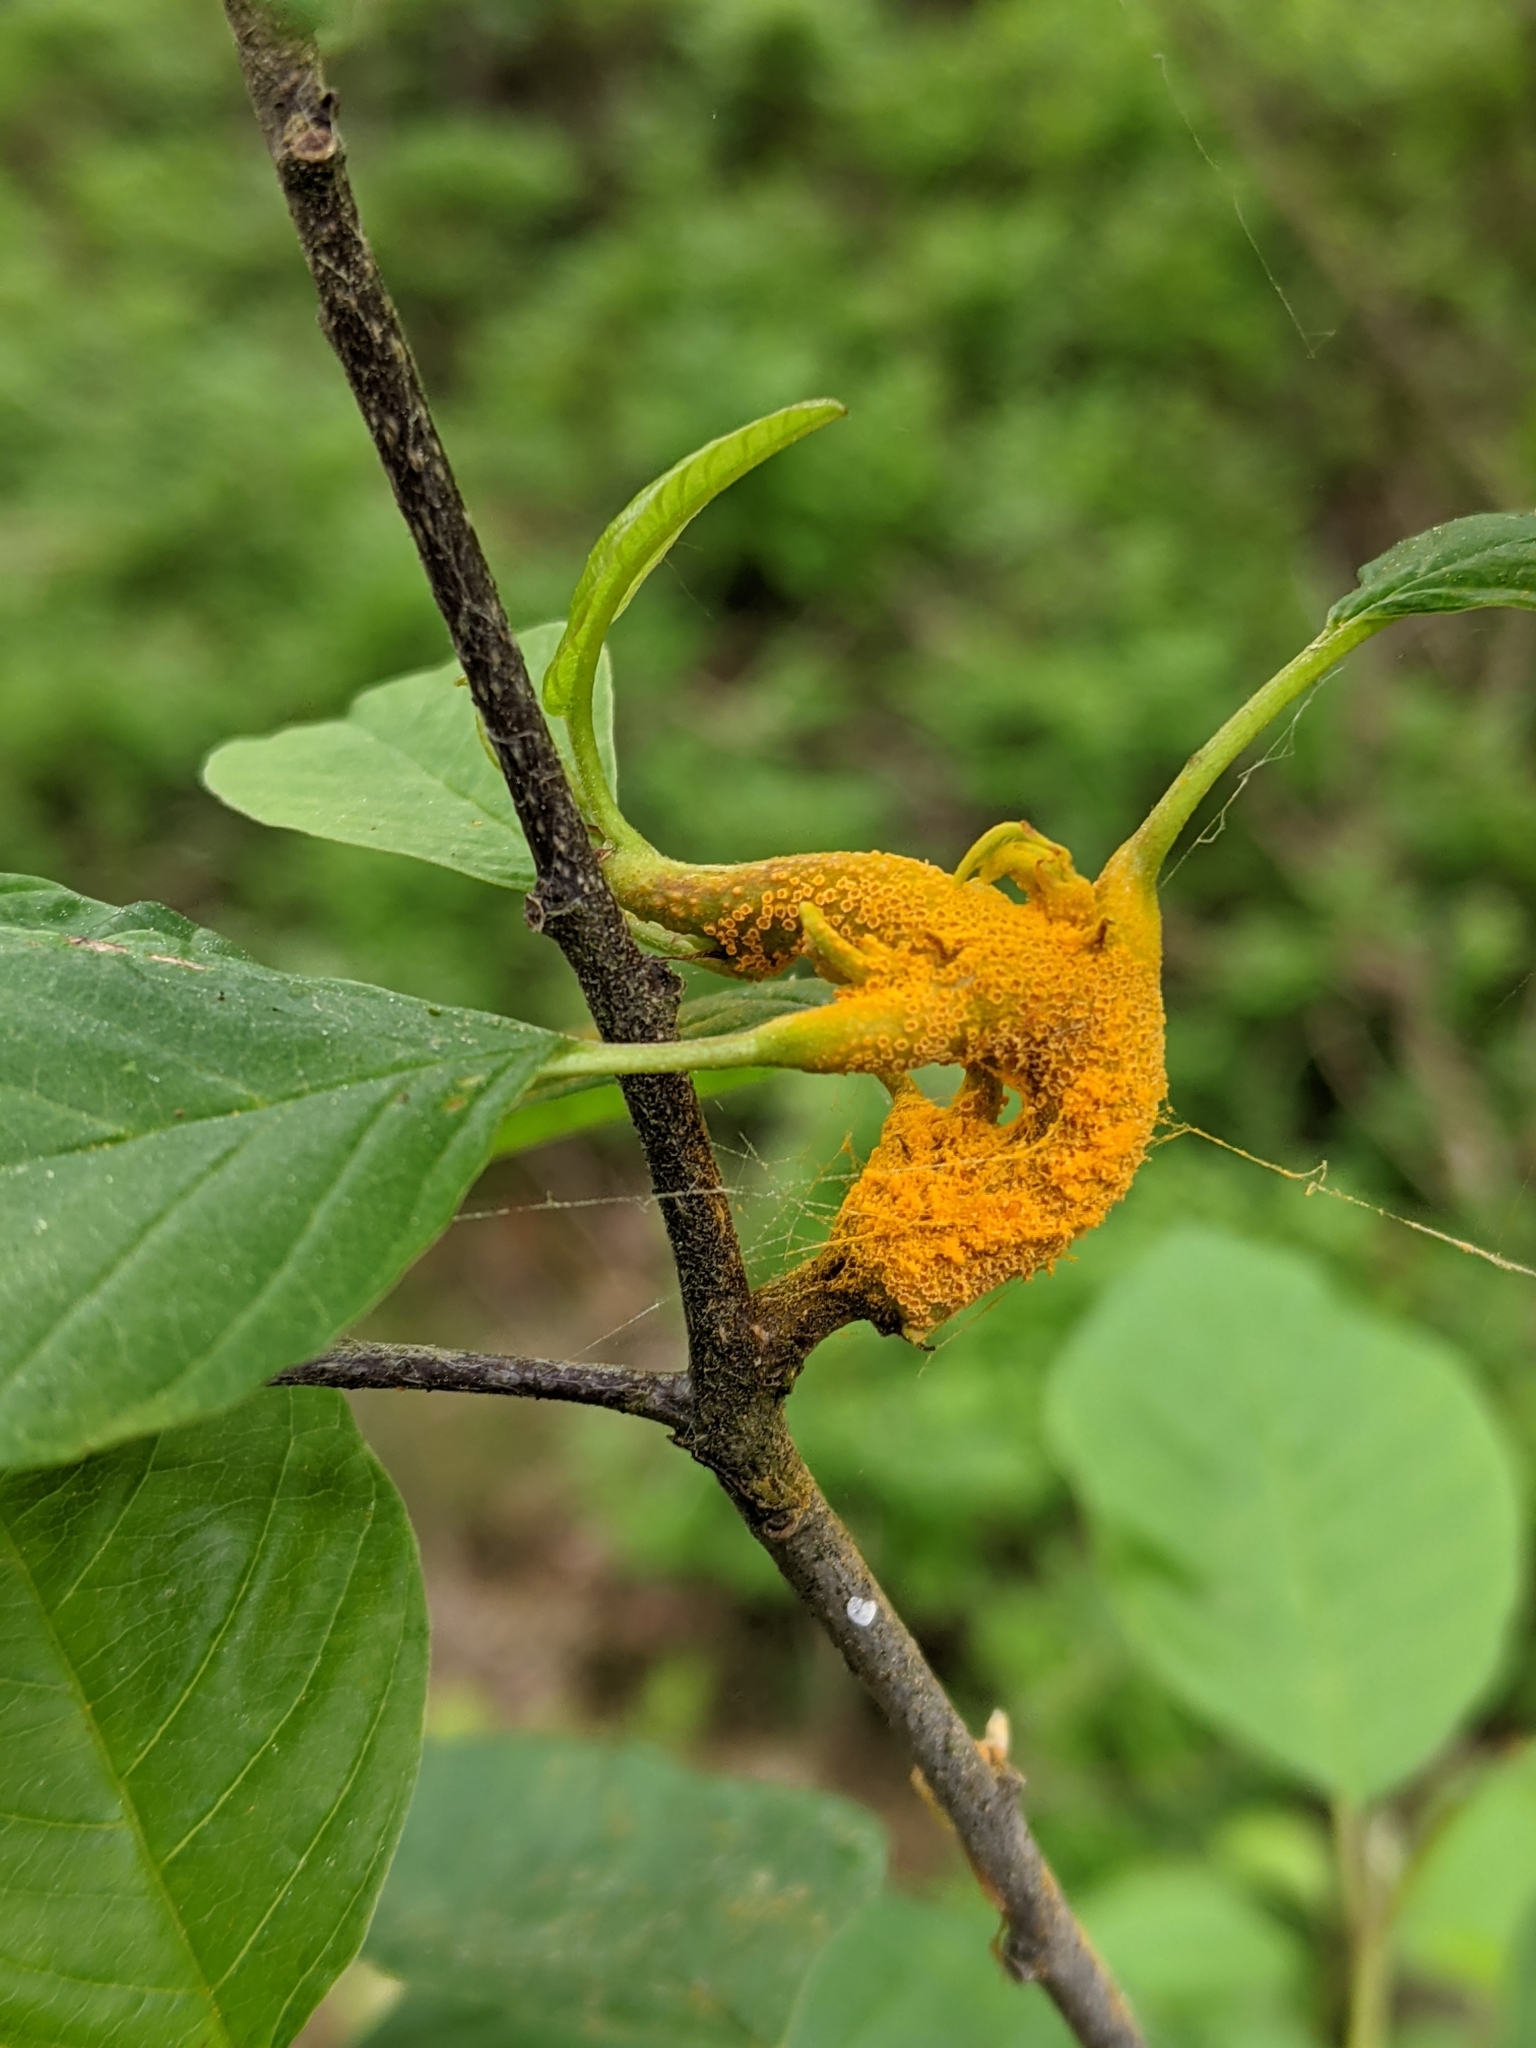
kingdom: Fungi
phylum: Basidiomycota
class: Pucciniomycetes
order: Pucciniales
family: Pucciniaceae
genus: Puccinia
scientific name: Puccinia coronata
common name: Crown rust
